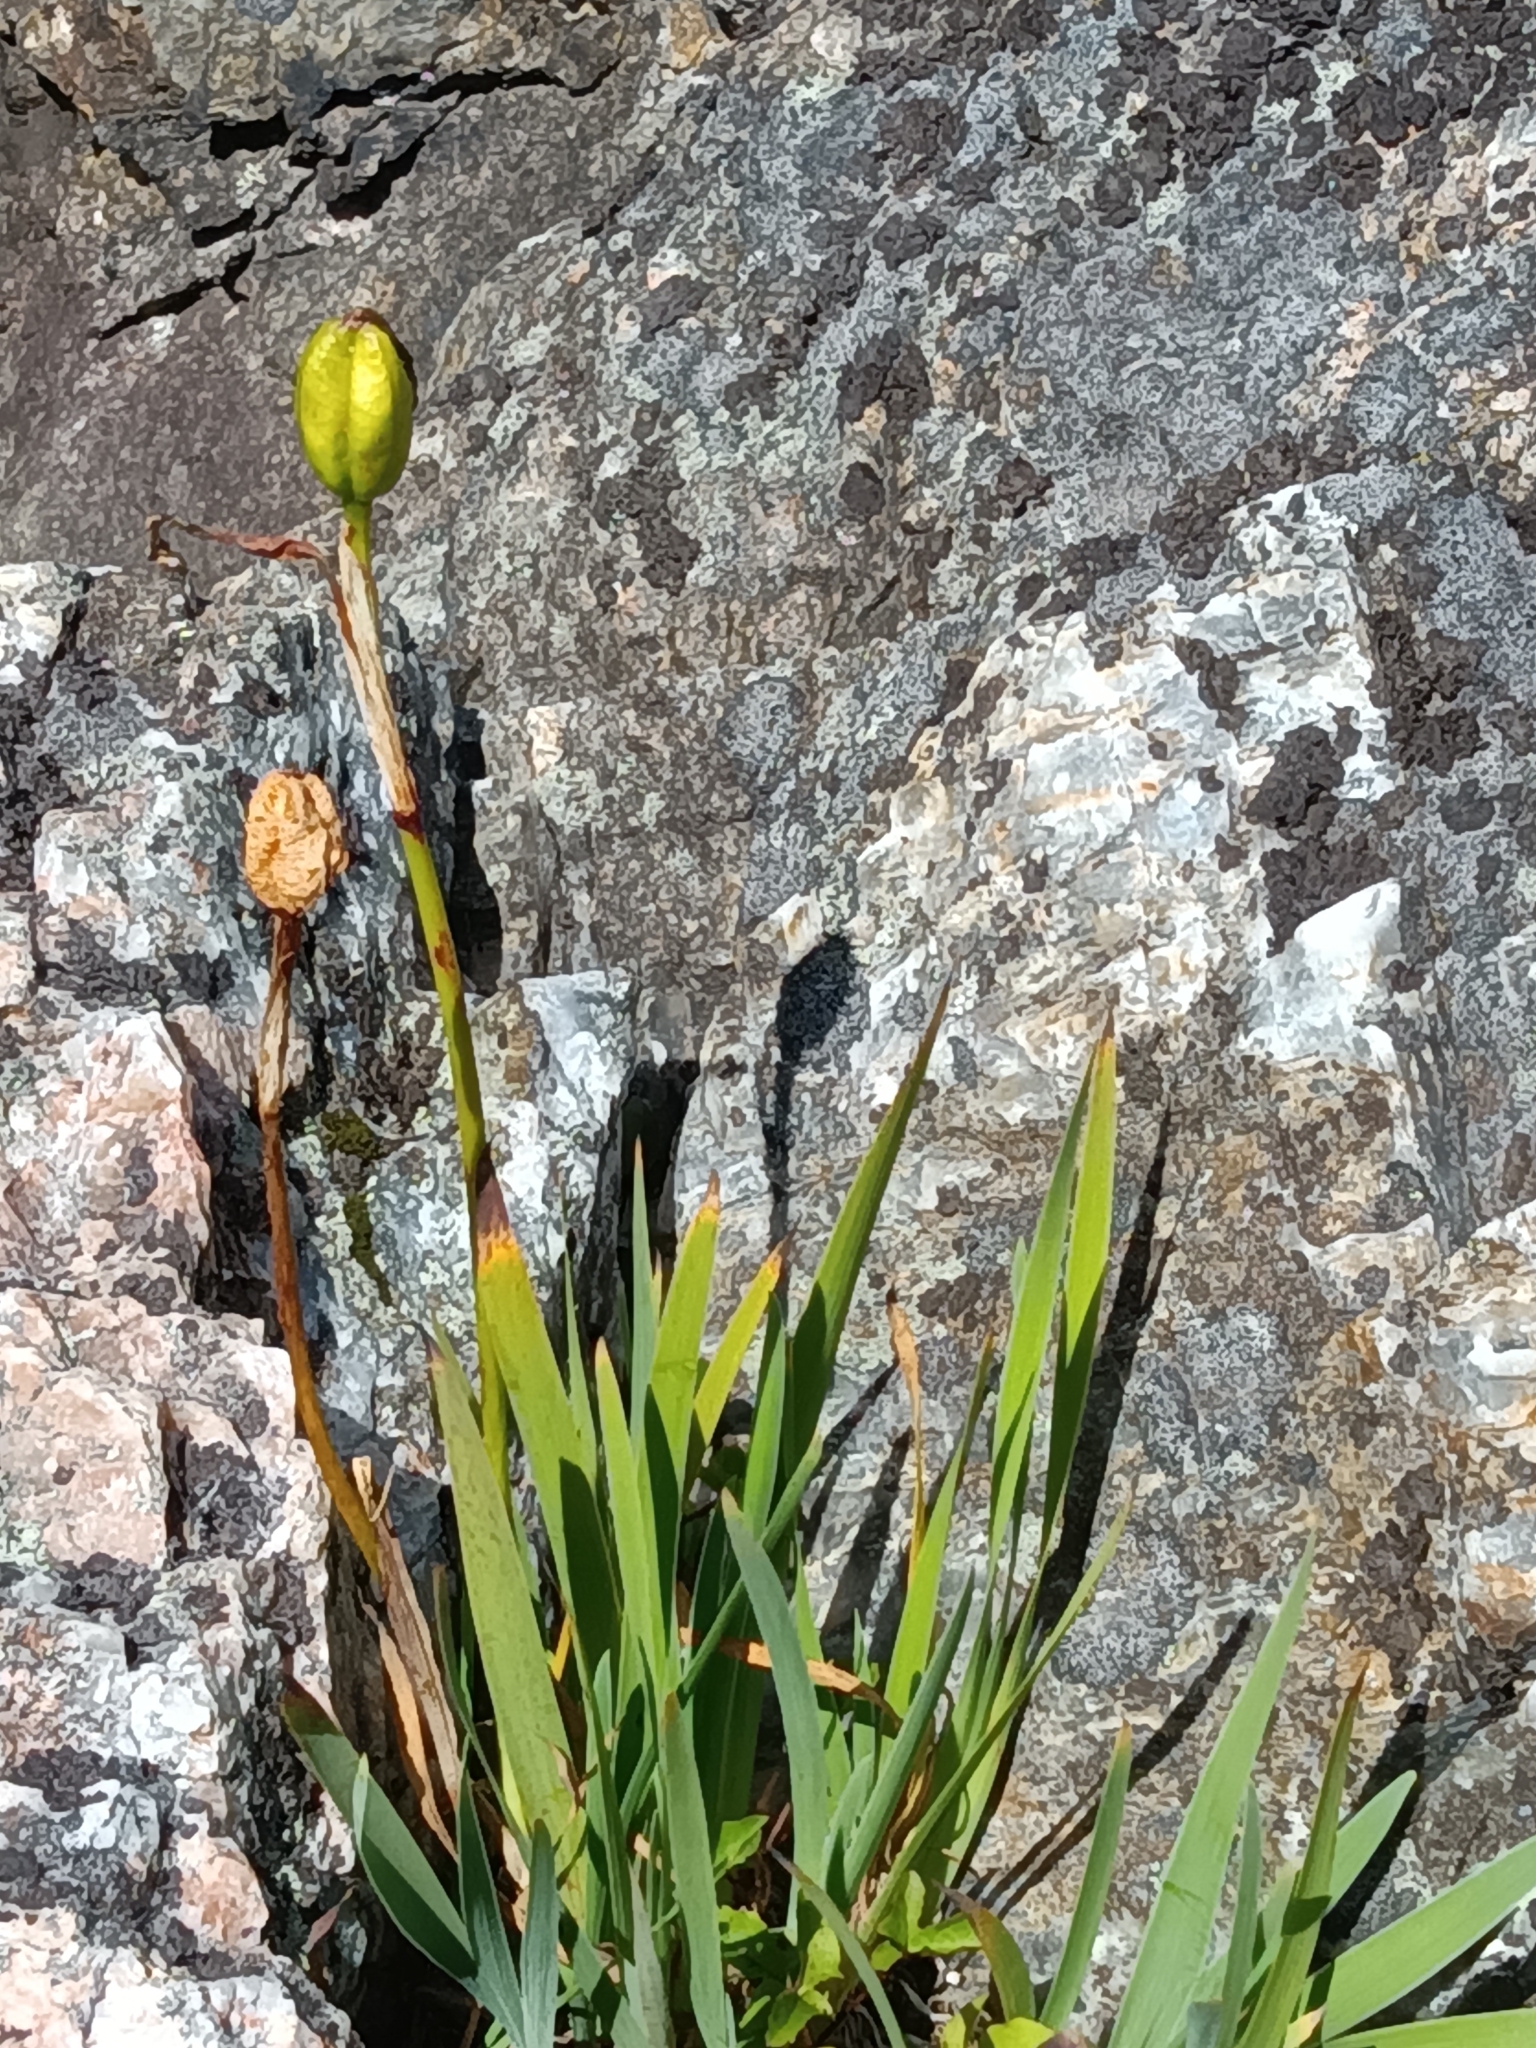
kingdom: Plantae
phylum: Tracheophyta
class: Liliopsida
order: Asparagales
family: Iridaceae
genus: Iris
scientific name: Iris hookeri
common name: Canada beach-head iris
